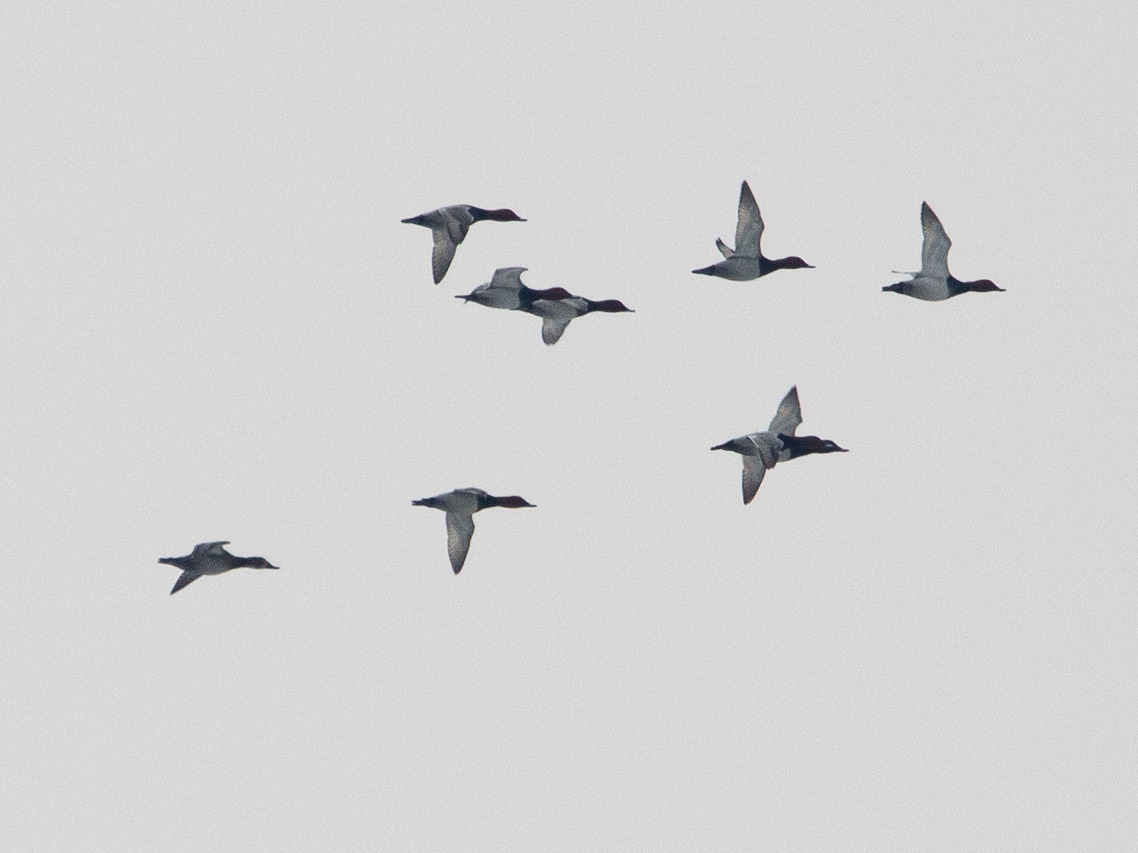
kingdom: Animalia
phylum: Chordata
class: Aves
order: Anseriformes
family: Anatidae
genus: Aythya
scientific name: Aythya ferina
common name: Common pochard
